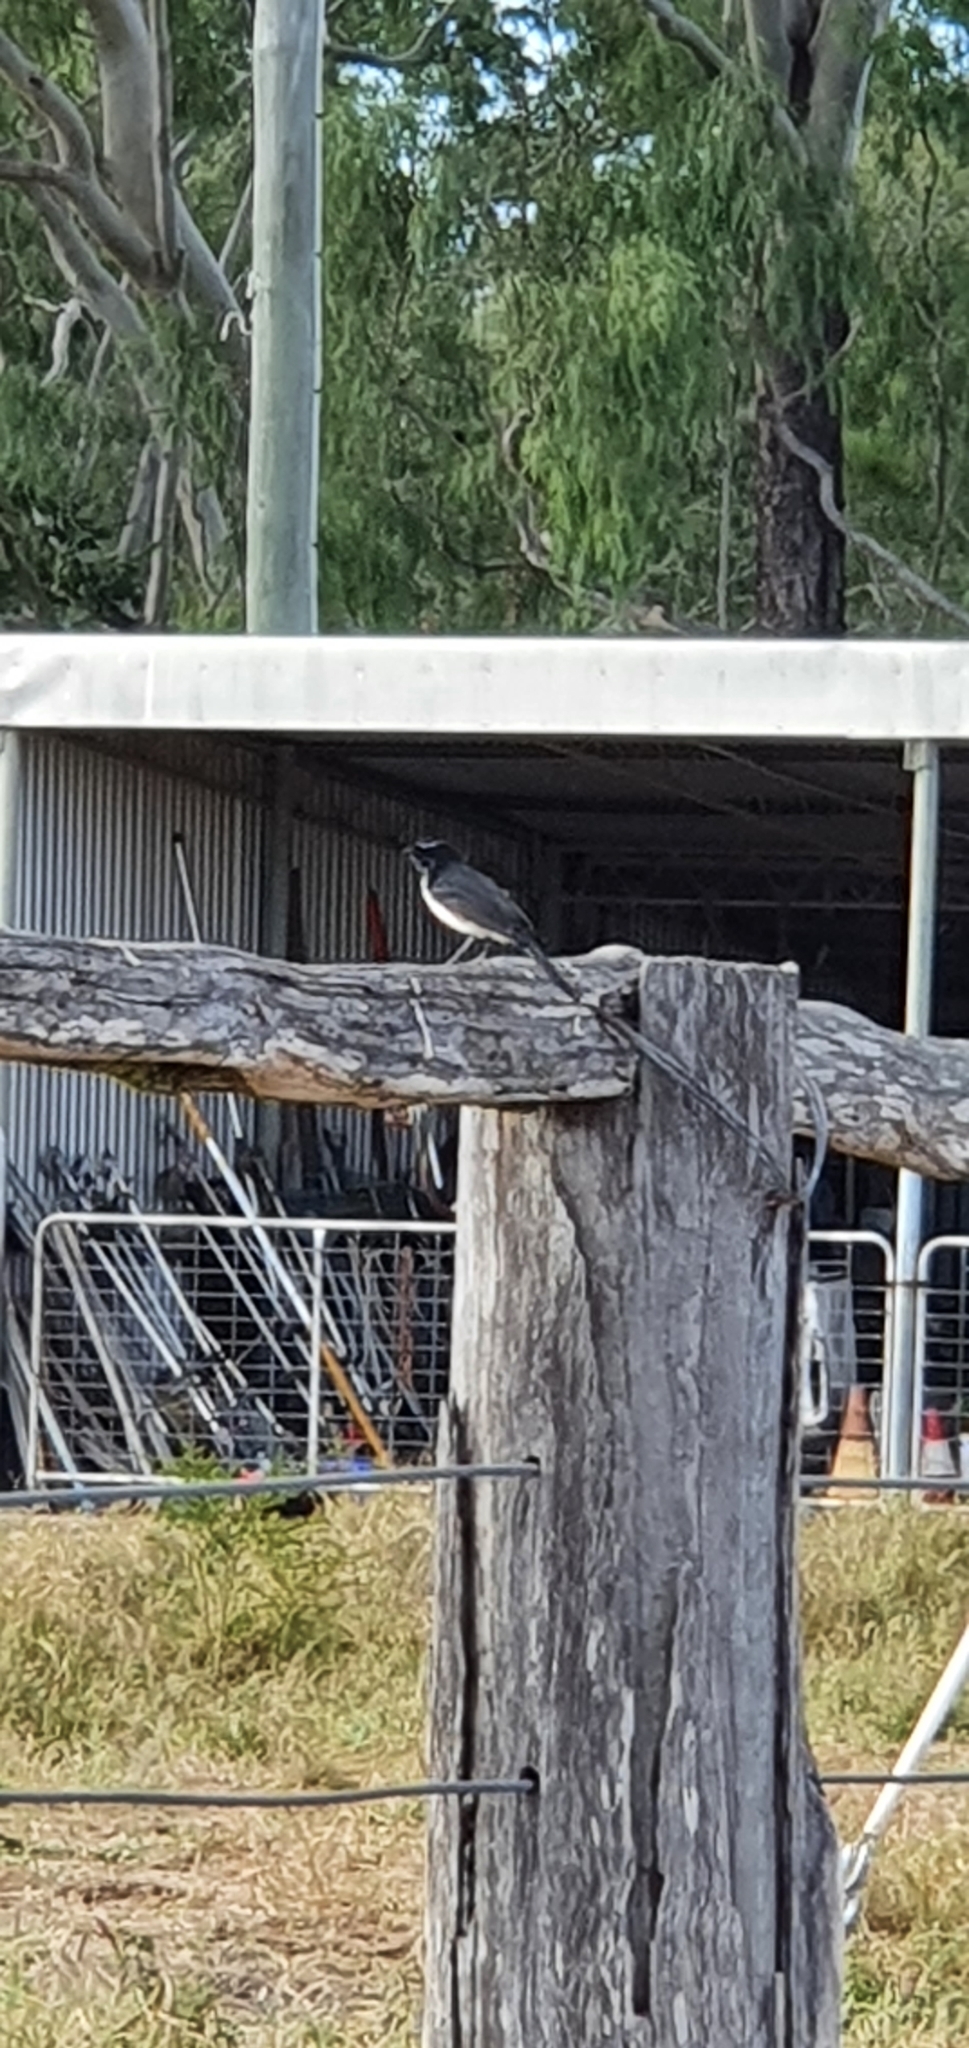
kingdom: Animalia
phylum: Chordata
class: Aves
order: Passeriformes
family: Rhipiduridae
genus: Rhipidura
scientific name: Rhipidura leucophrys
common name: Willie wagtail
